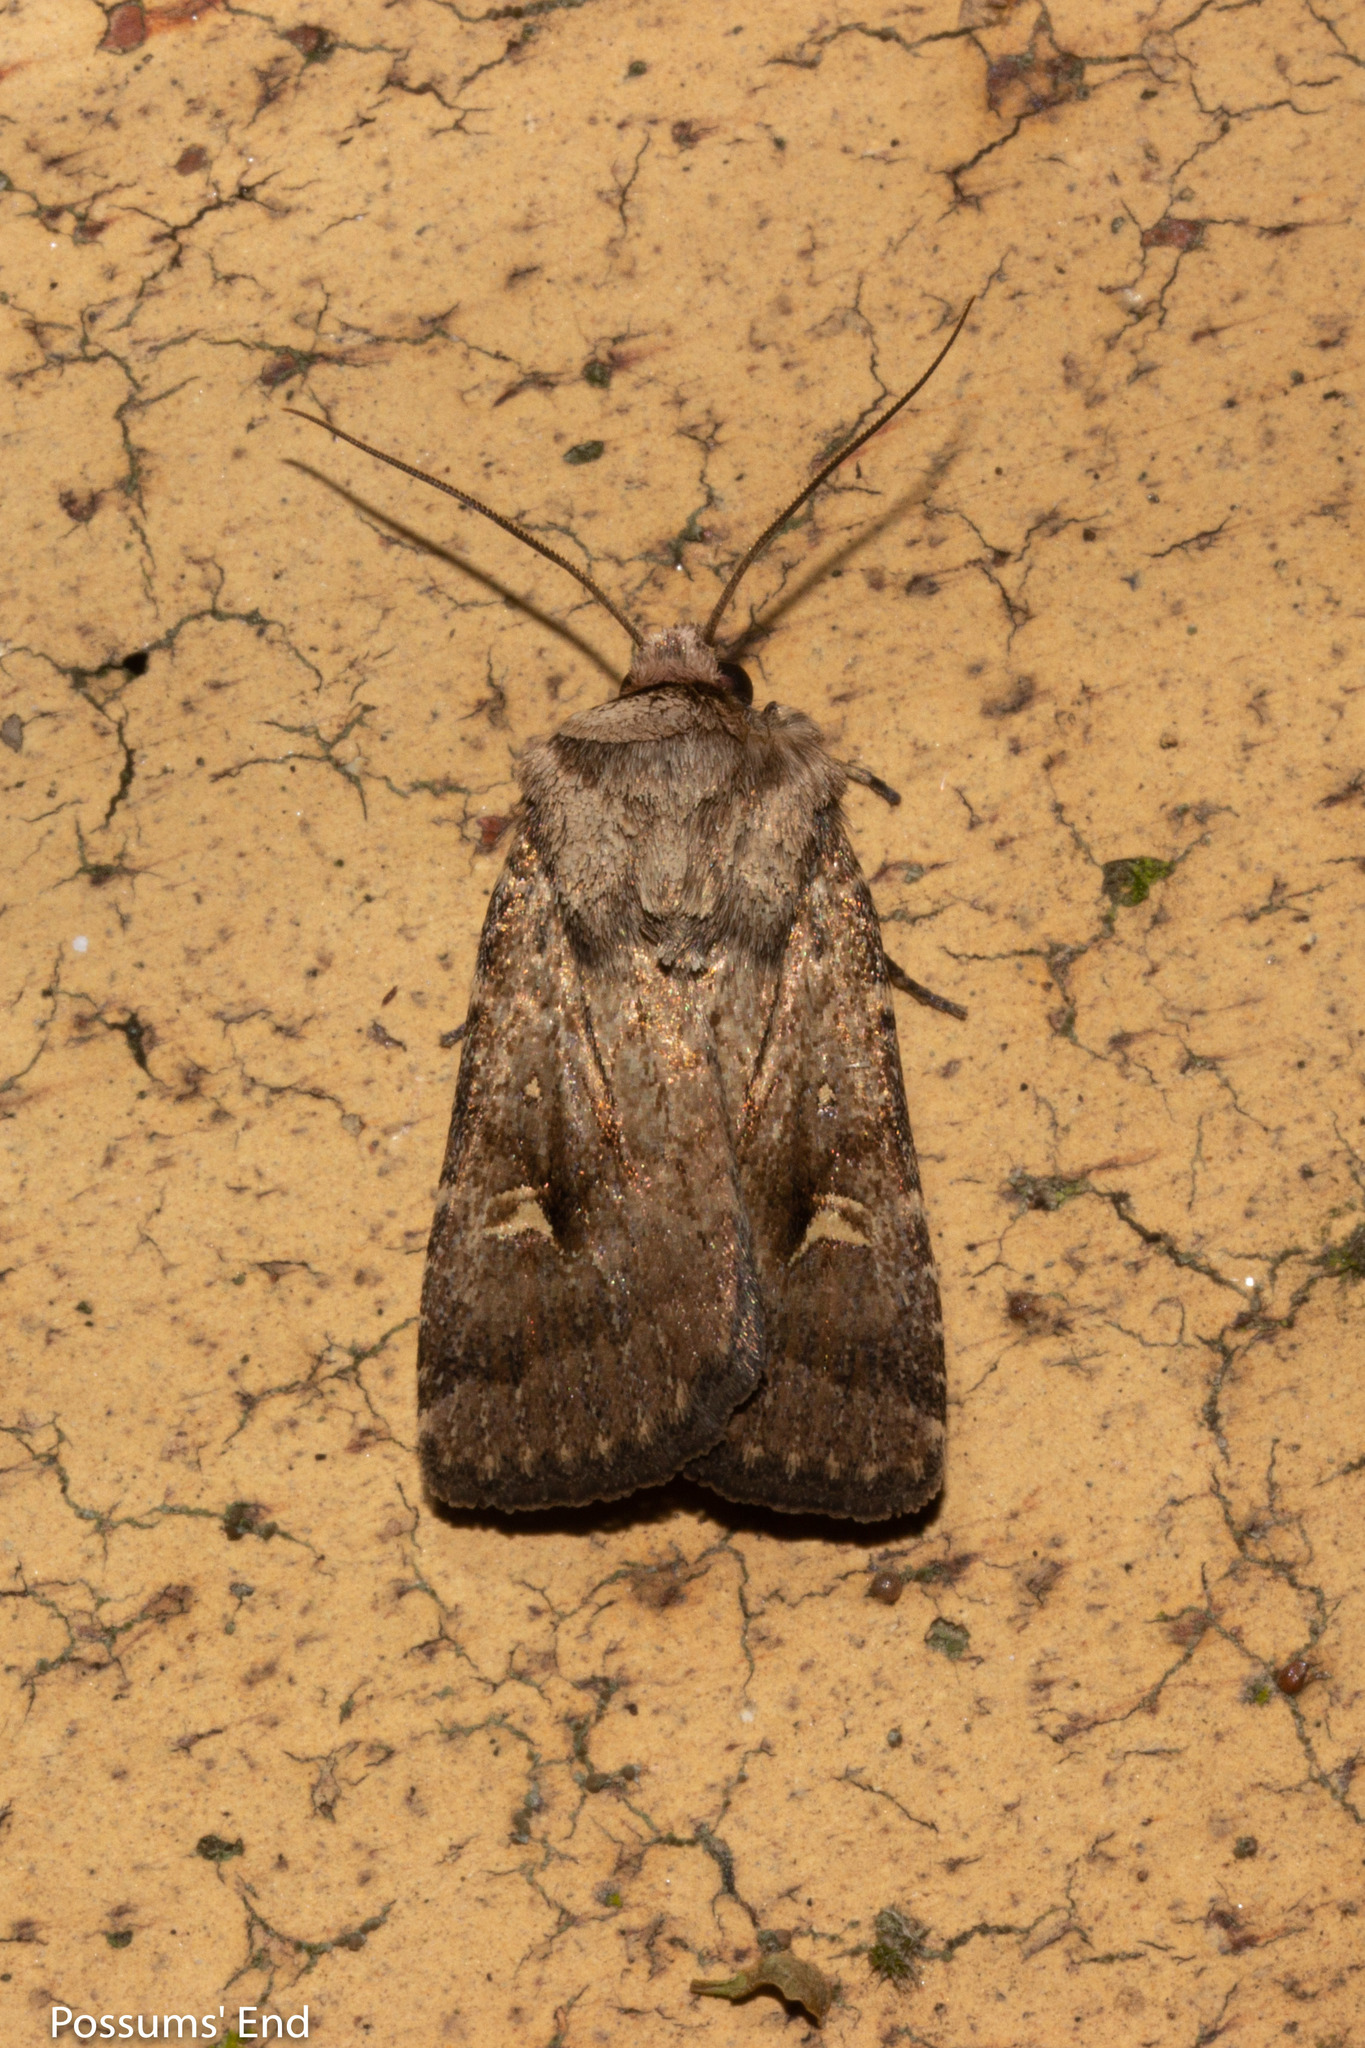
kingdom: Animalia
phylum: Arthropoda
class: Insecta
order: Lepidoptera
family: Noctuidae
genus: Proteuxoa
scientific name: Proteuxoa tetronycha
